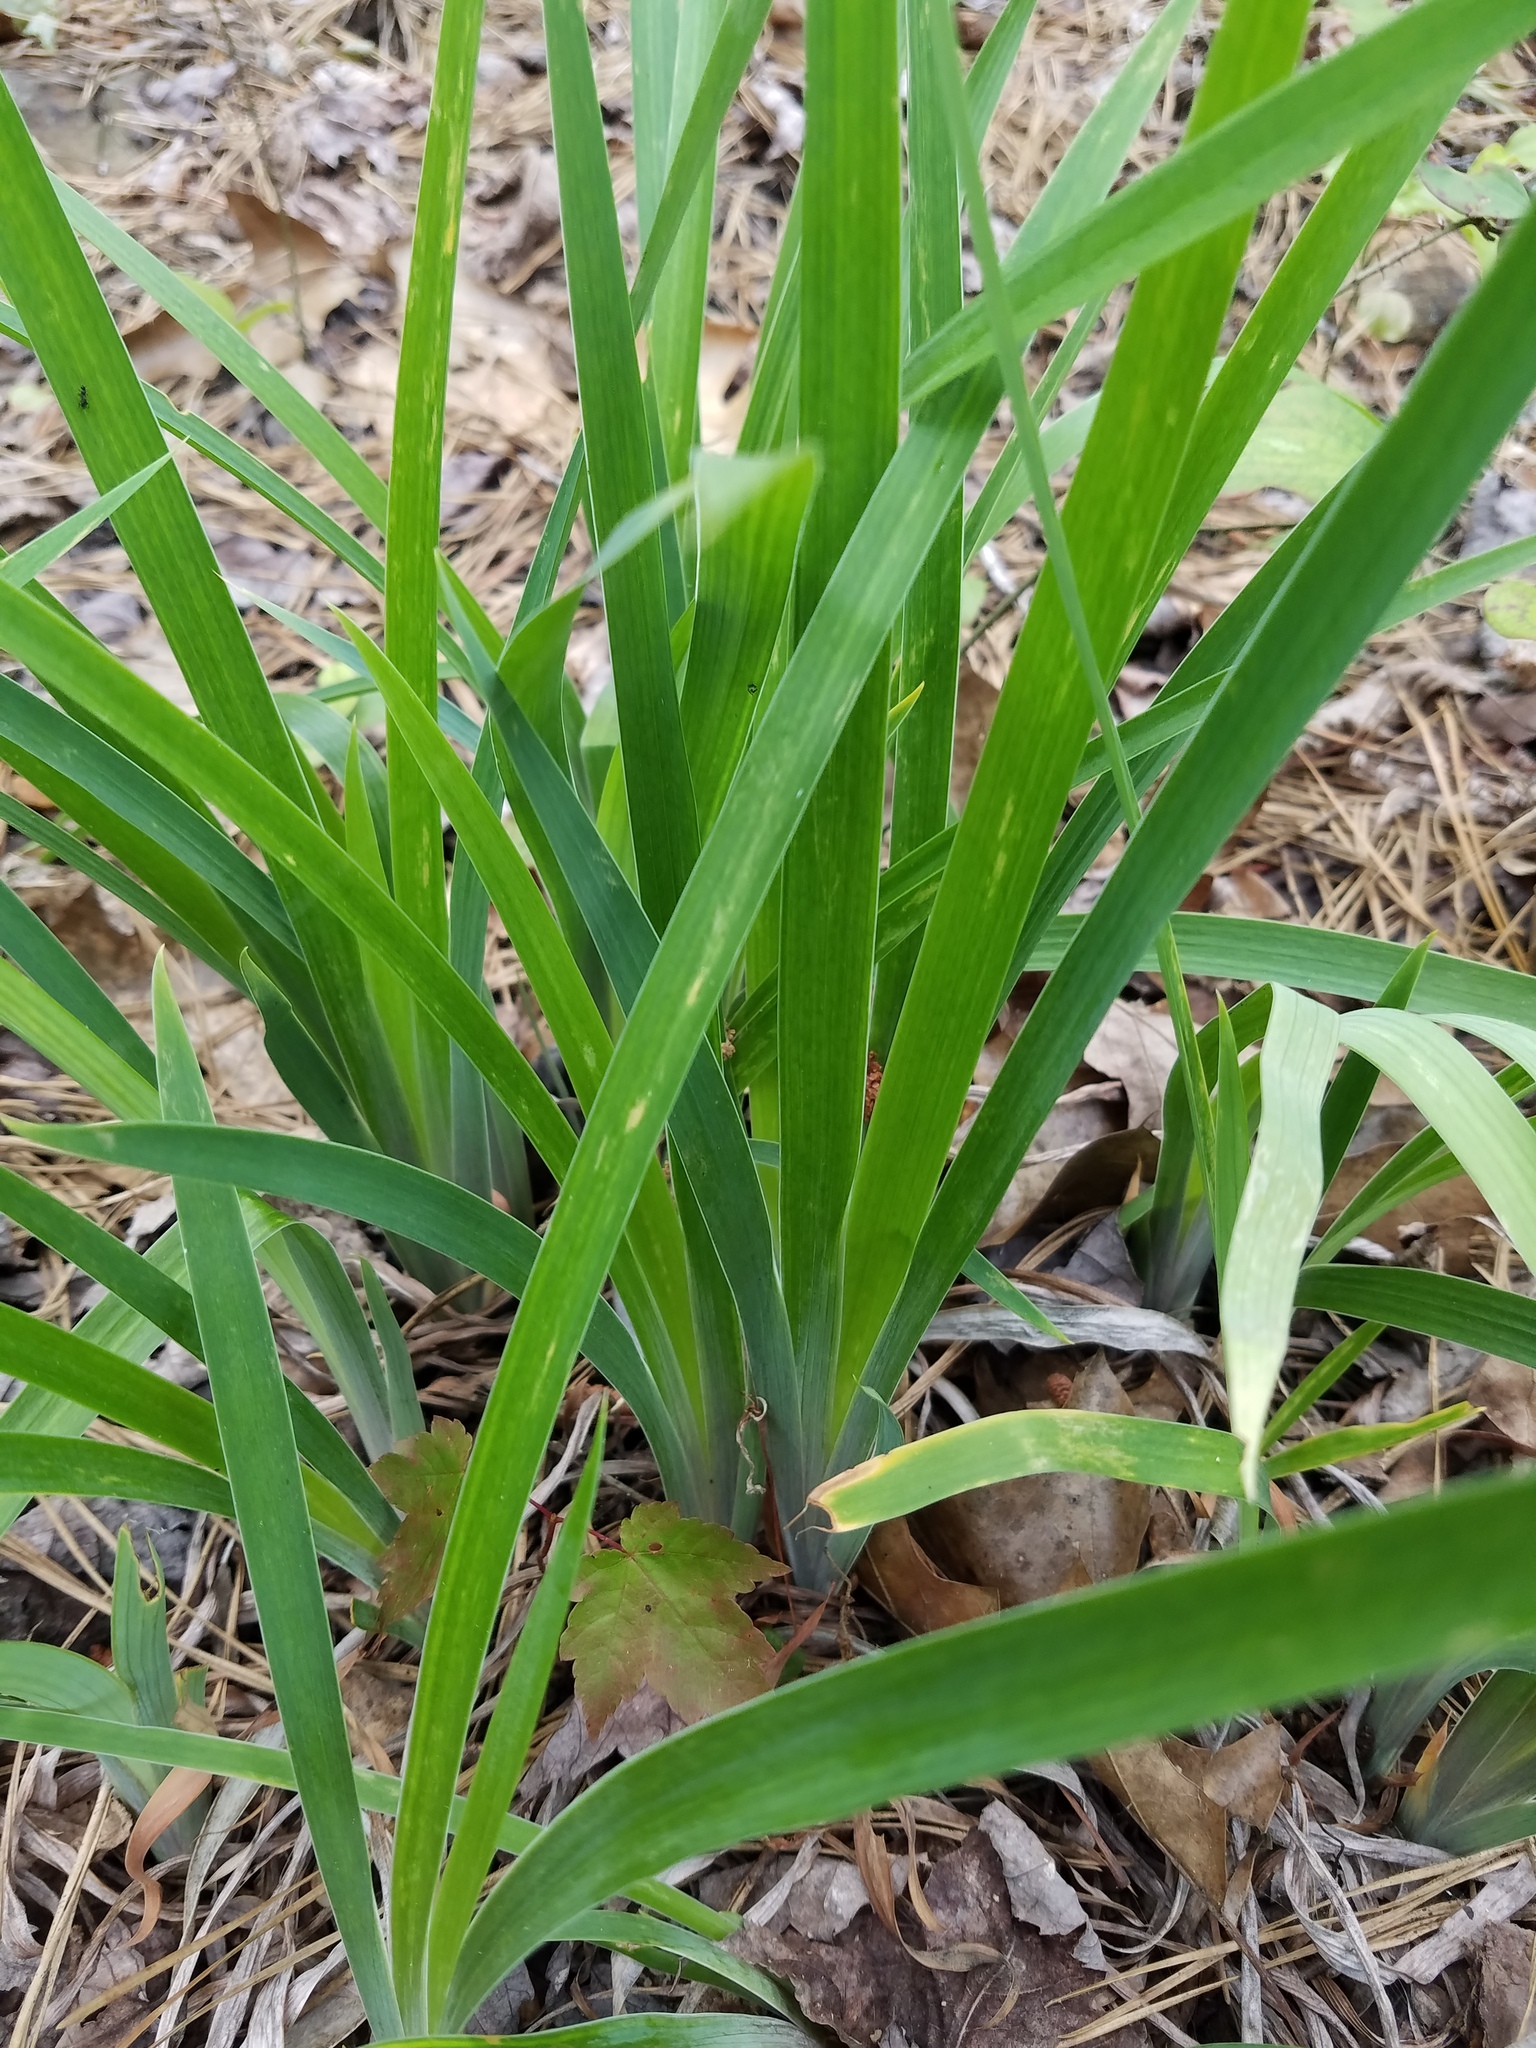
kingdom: Plantae
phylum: Tracheophyta
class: Liliopsida
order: Asparagales
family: Iridaceae
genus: Iris
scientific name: Iris verna
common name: Dwarf iris
